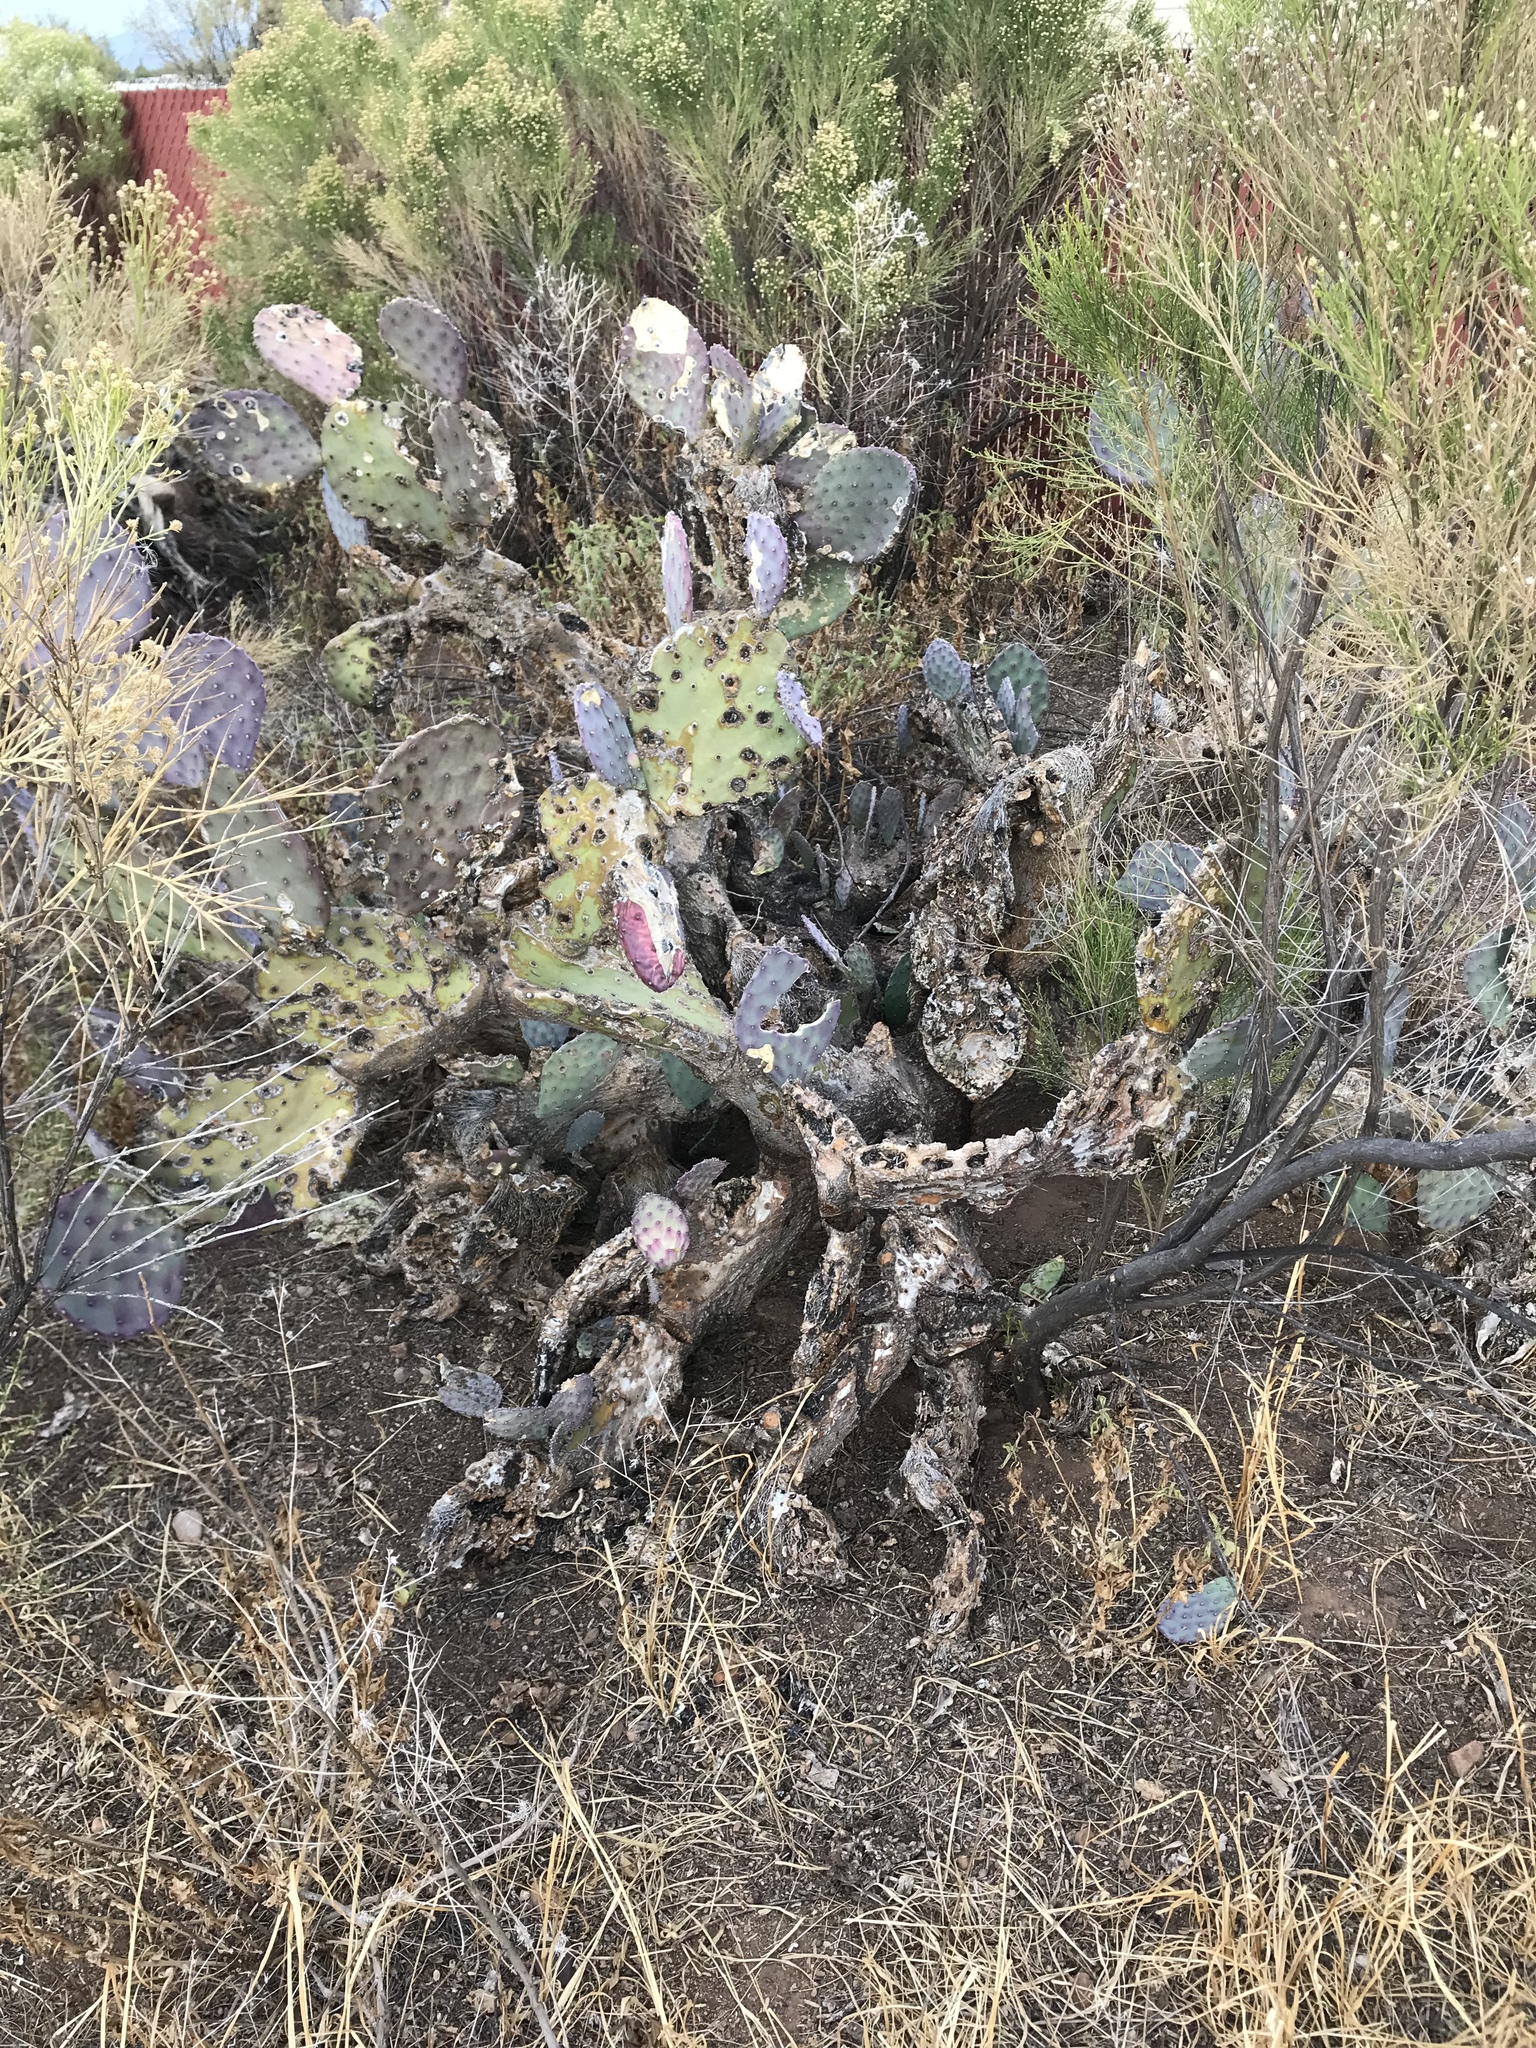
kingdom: Plantae
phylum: Tracheophyta
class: Magnoliopsida
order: Caryophyllales
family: Cactaceae
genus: Opuntia
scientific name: Opuntia gosseliniana
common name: Violet prickly-pear
